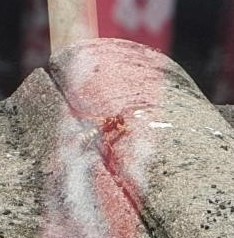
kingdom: Animalia
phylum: Arthropoda
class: Insecta
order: Hymenoptera
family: Eumenidae
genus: Polistes
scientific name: Polistes dominula
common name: Paper wasp
